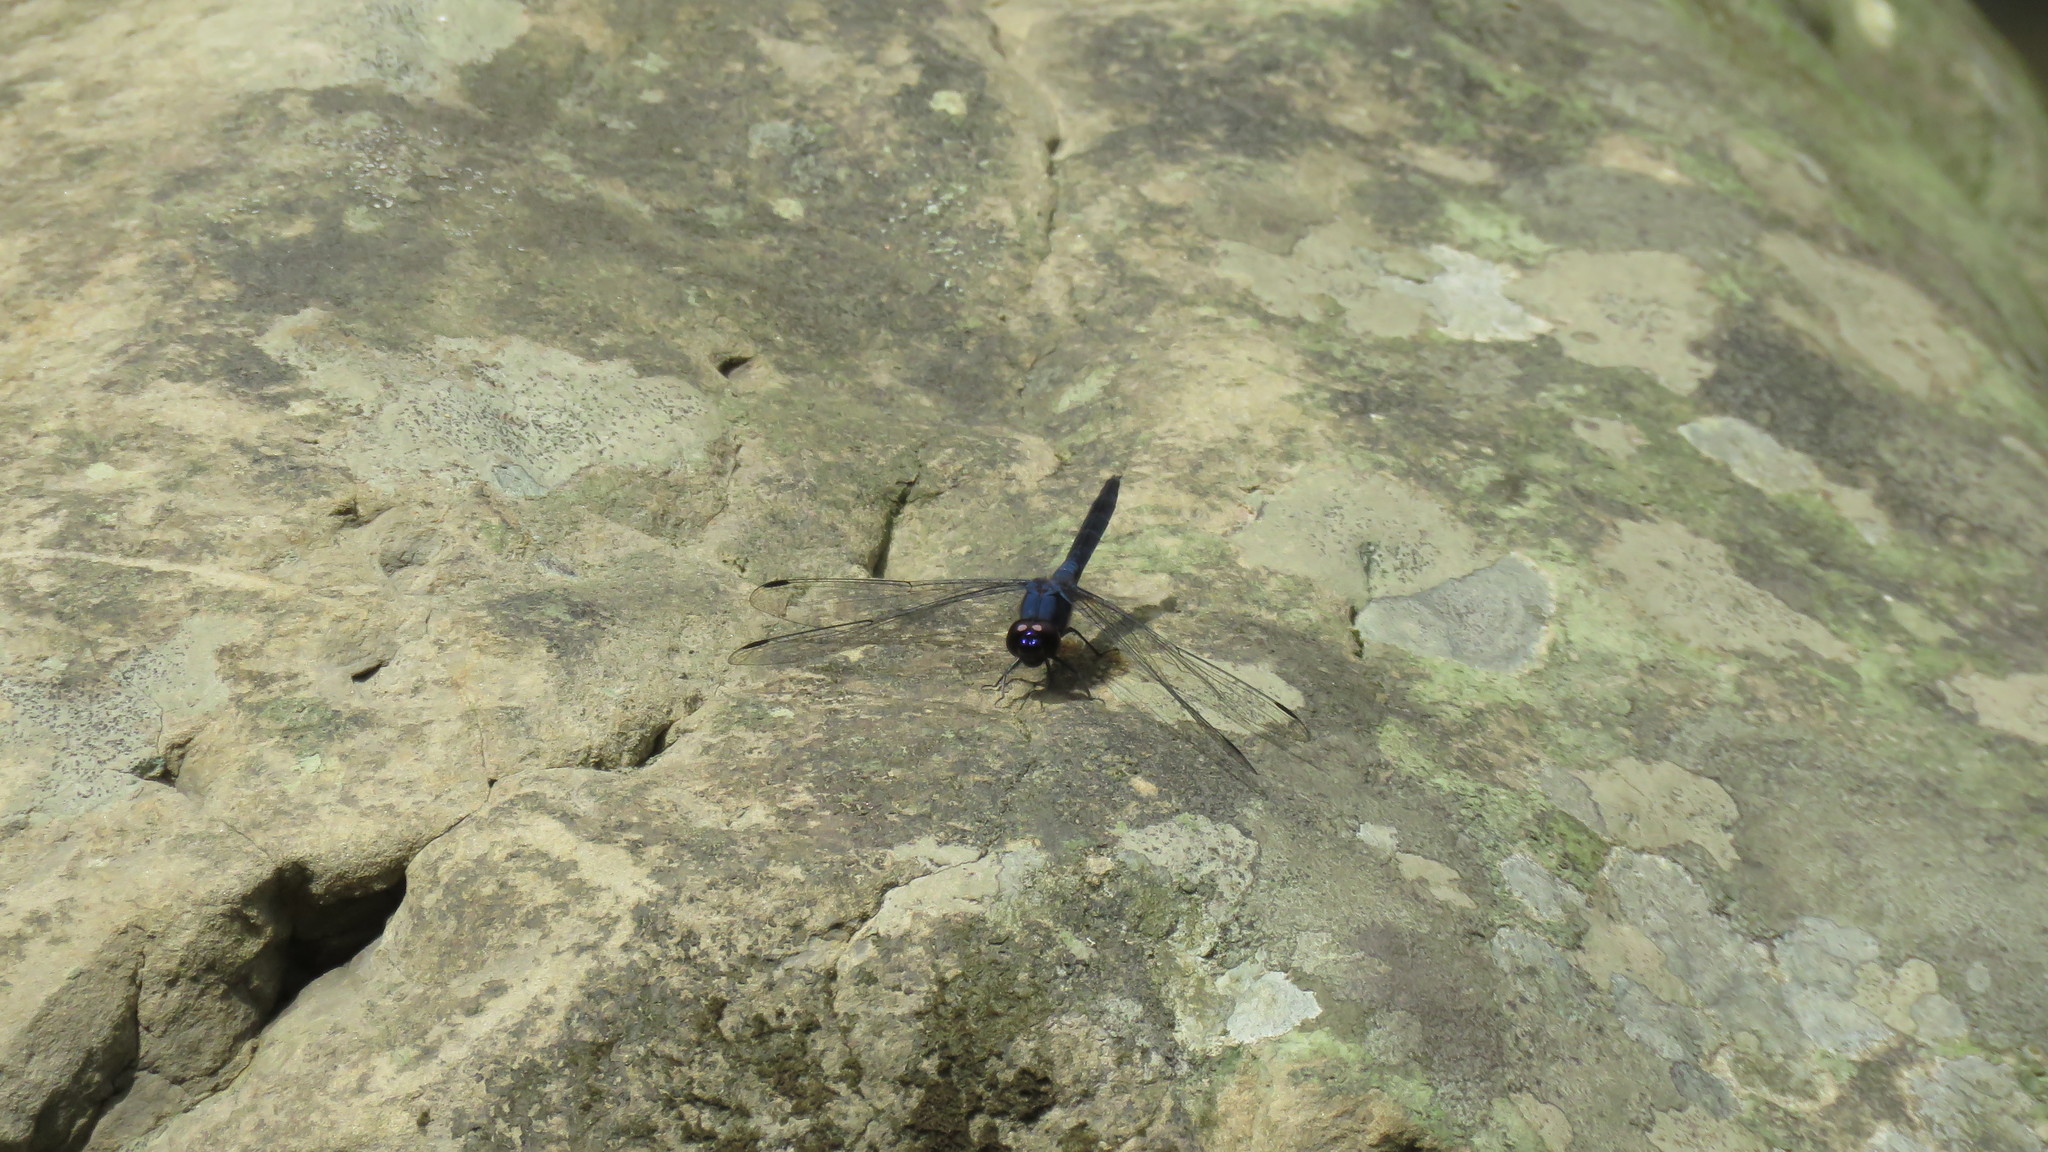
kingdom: Animalia
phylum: Arthropoda
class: Insecta
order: Odonata
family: Libellulidae
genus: Trithemis
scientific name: Trithemis festiva
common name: Indigo dropwing
